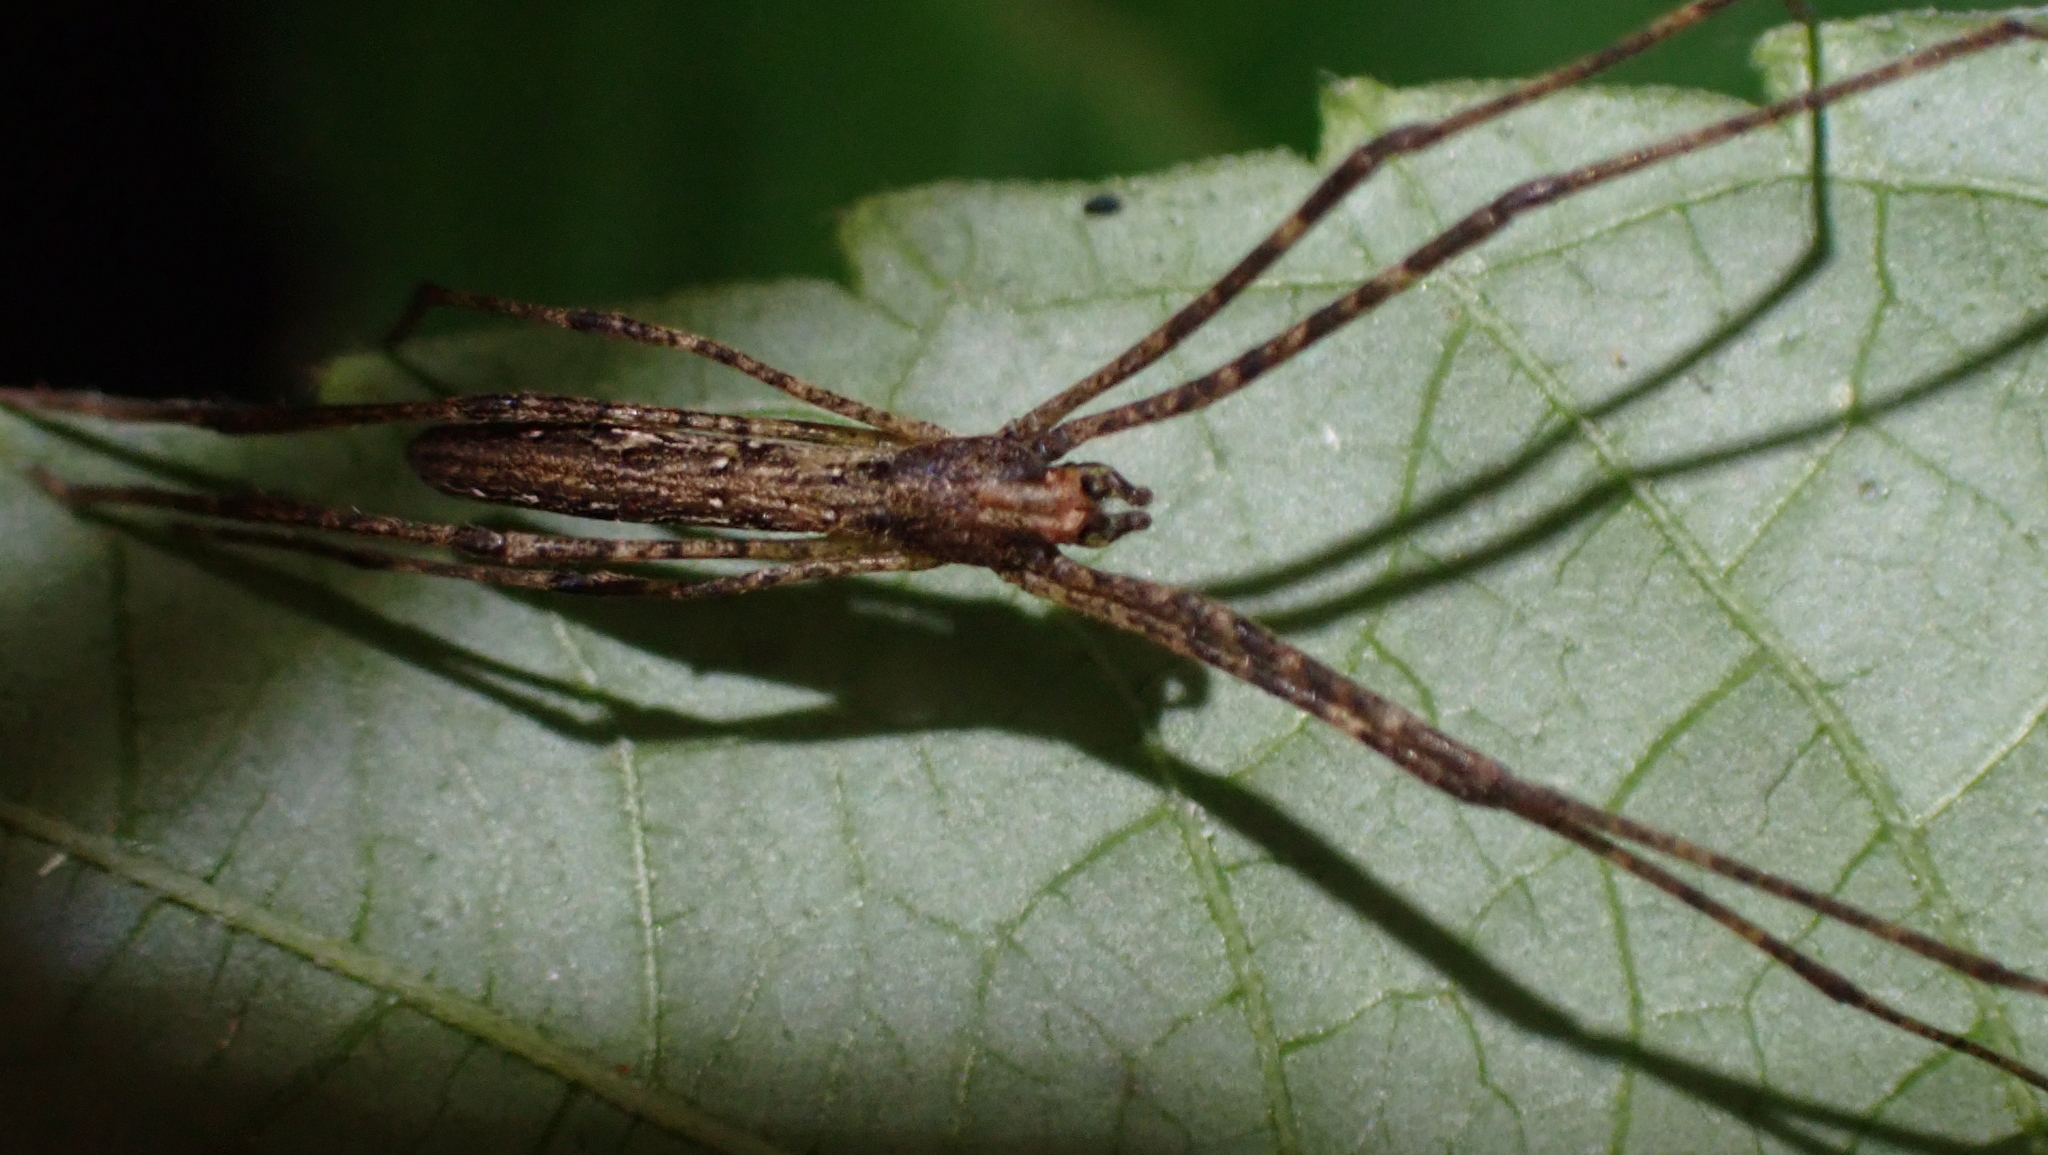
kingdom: Animalia
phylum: Arthropoda
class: Arachnida
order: Araneae
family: Deinopidae
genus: Deinopis
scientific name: Deinopis longipes
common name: Ogre faced spiders
